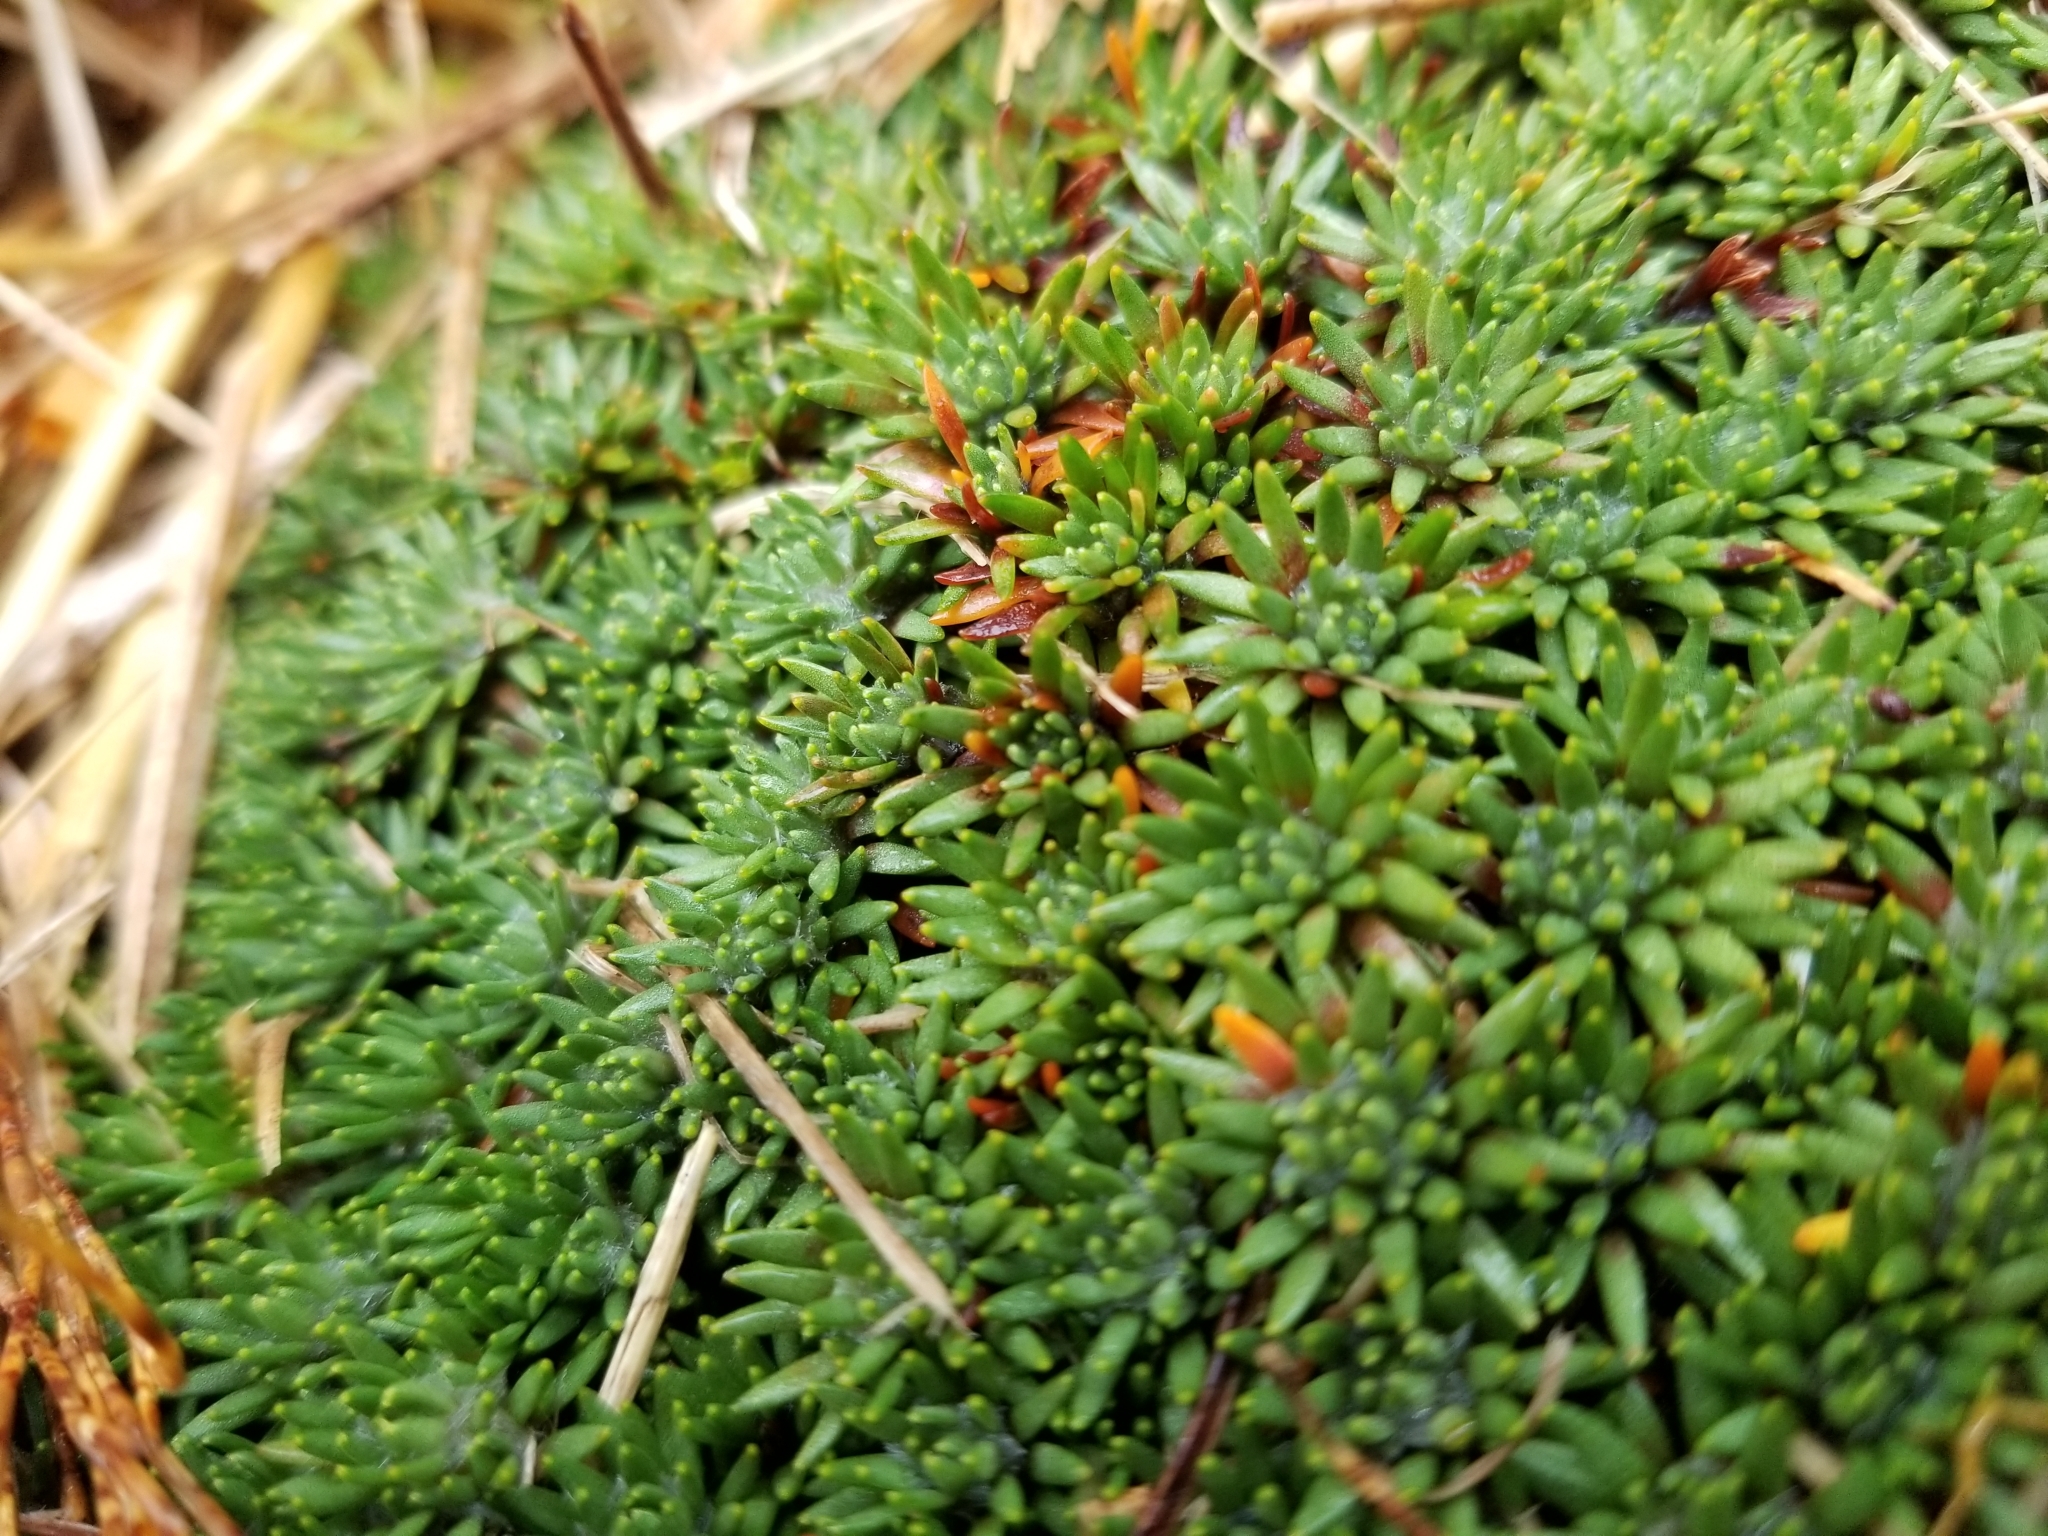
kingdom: Plantae
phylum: Tracheophyta
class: Magnoliopsida
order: Asterales
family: Stylidiaceae
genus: Donatia
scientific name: Donatia novae-zelandiae
